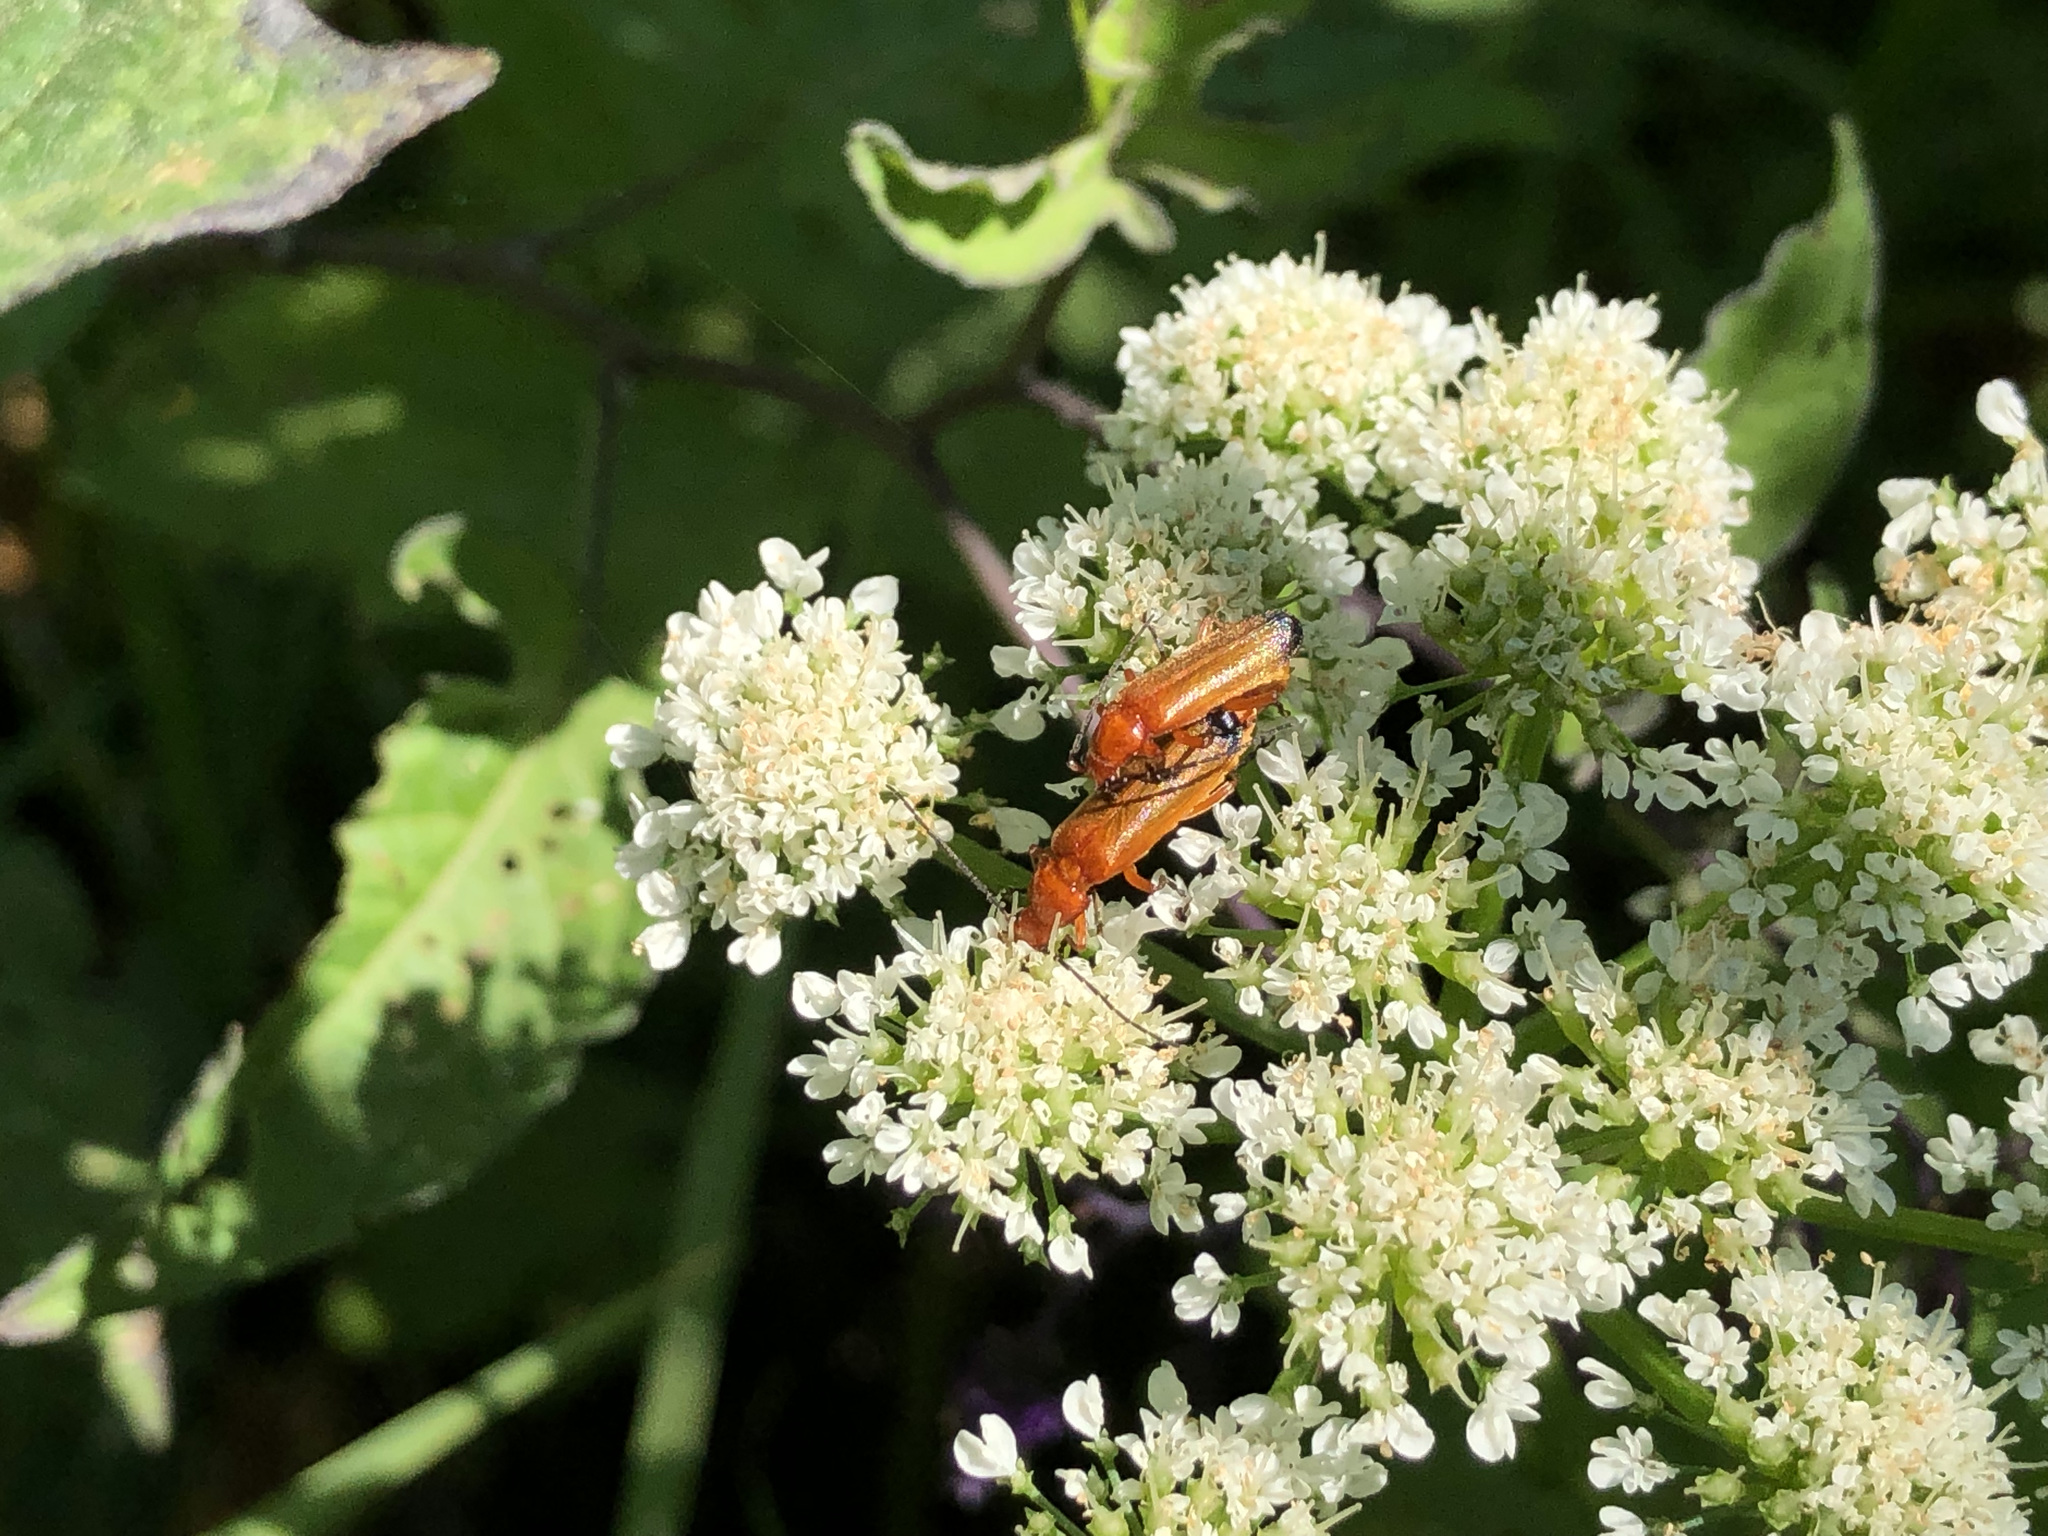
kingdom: Animalia
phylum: Arthropoda
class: Insecta
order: Coleoptera
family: Cantharidae
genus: Rhagonycha
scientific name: Rhagonycha fulva
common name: Common red soldier beetle
